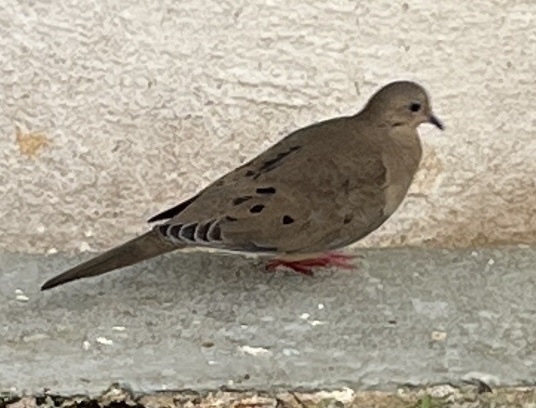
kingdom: Animalia
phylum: Chordata
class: Aves
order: Columbiformes
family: Columbidae
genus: Zenaida
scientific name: Zenaida macroura
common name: Mourning dove
